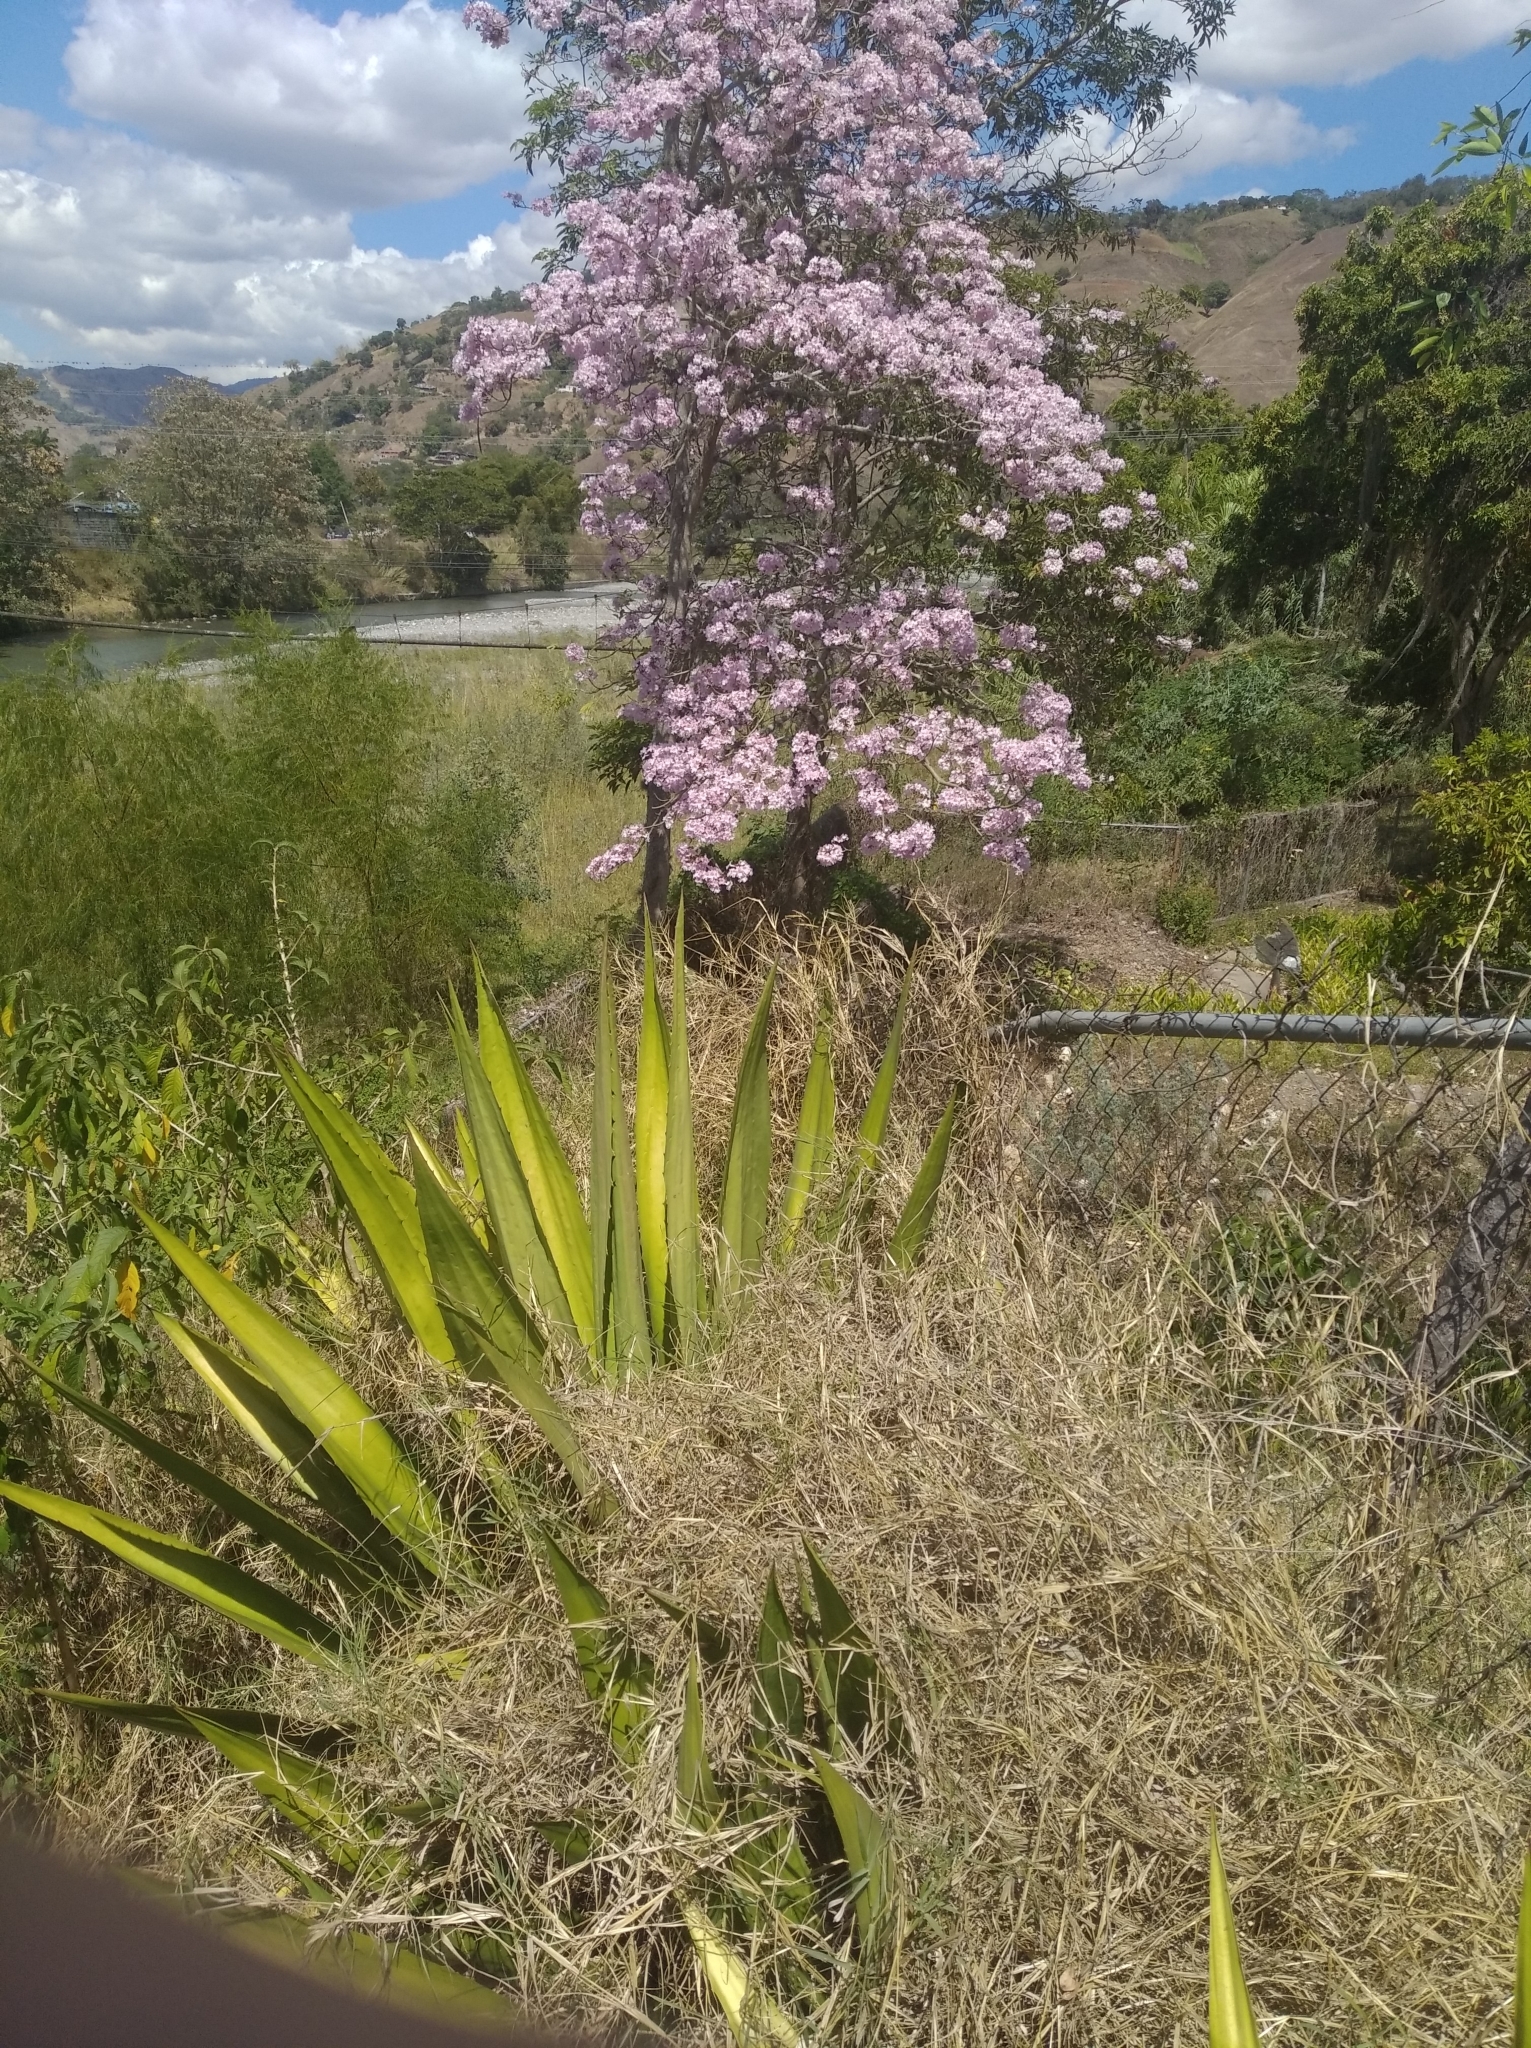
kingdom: Plantae
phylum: Tracheophyta
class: Liliopsida
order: Asparagales
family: Asparagaceae
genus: Furcraea
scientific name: Furcraea foetida
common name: Mauritius hemp
